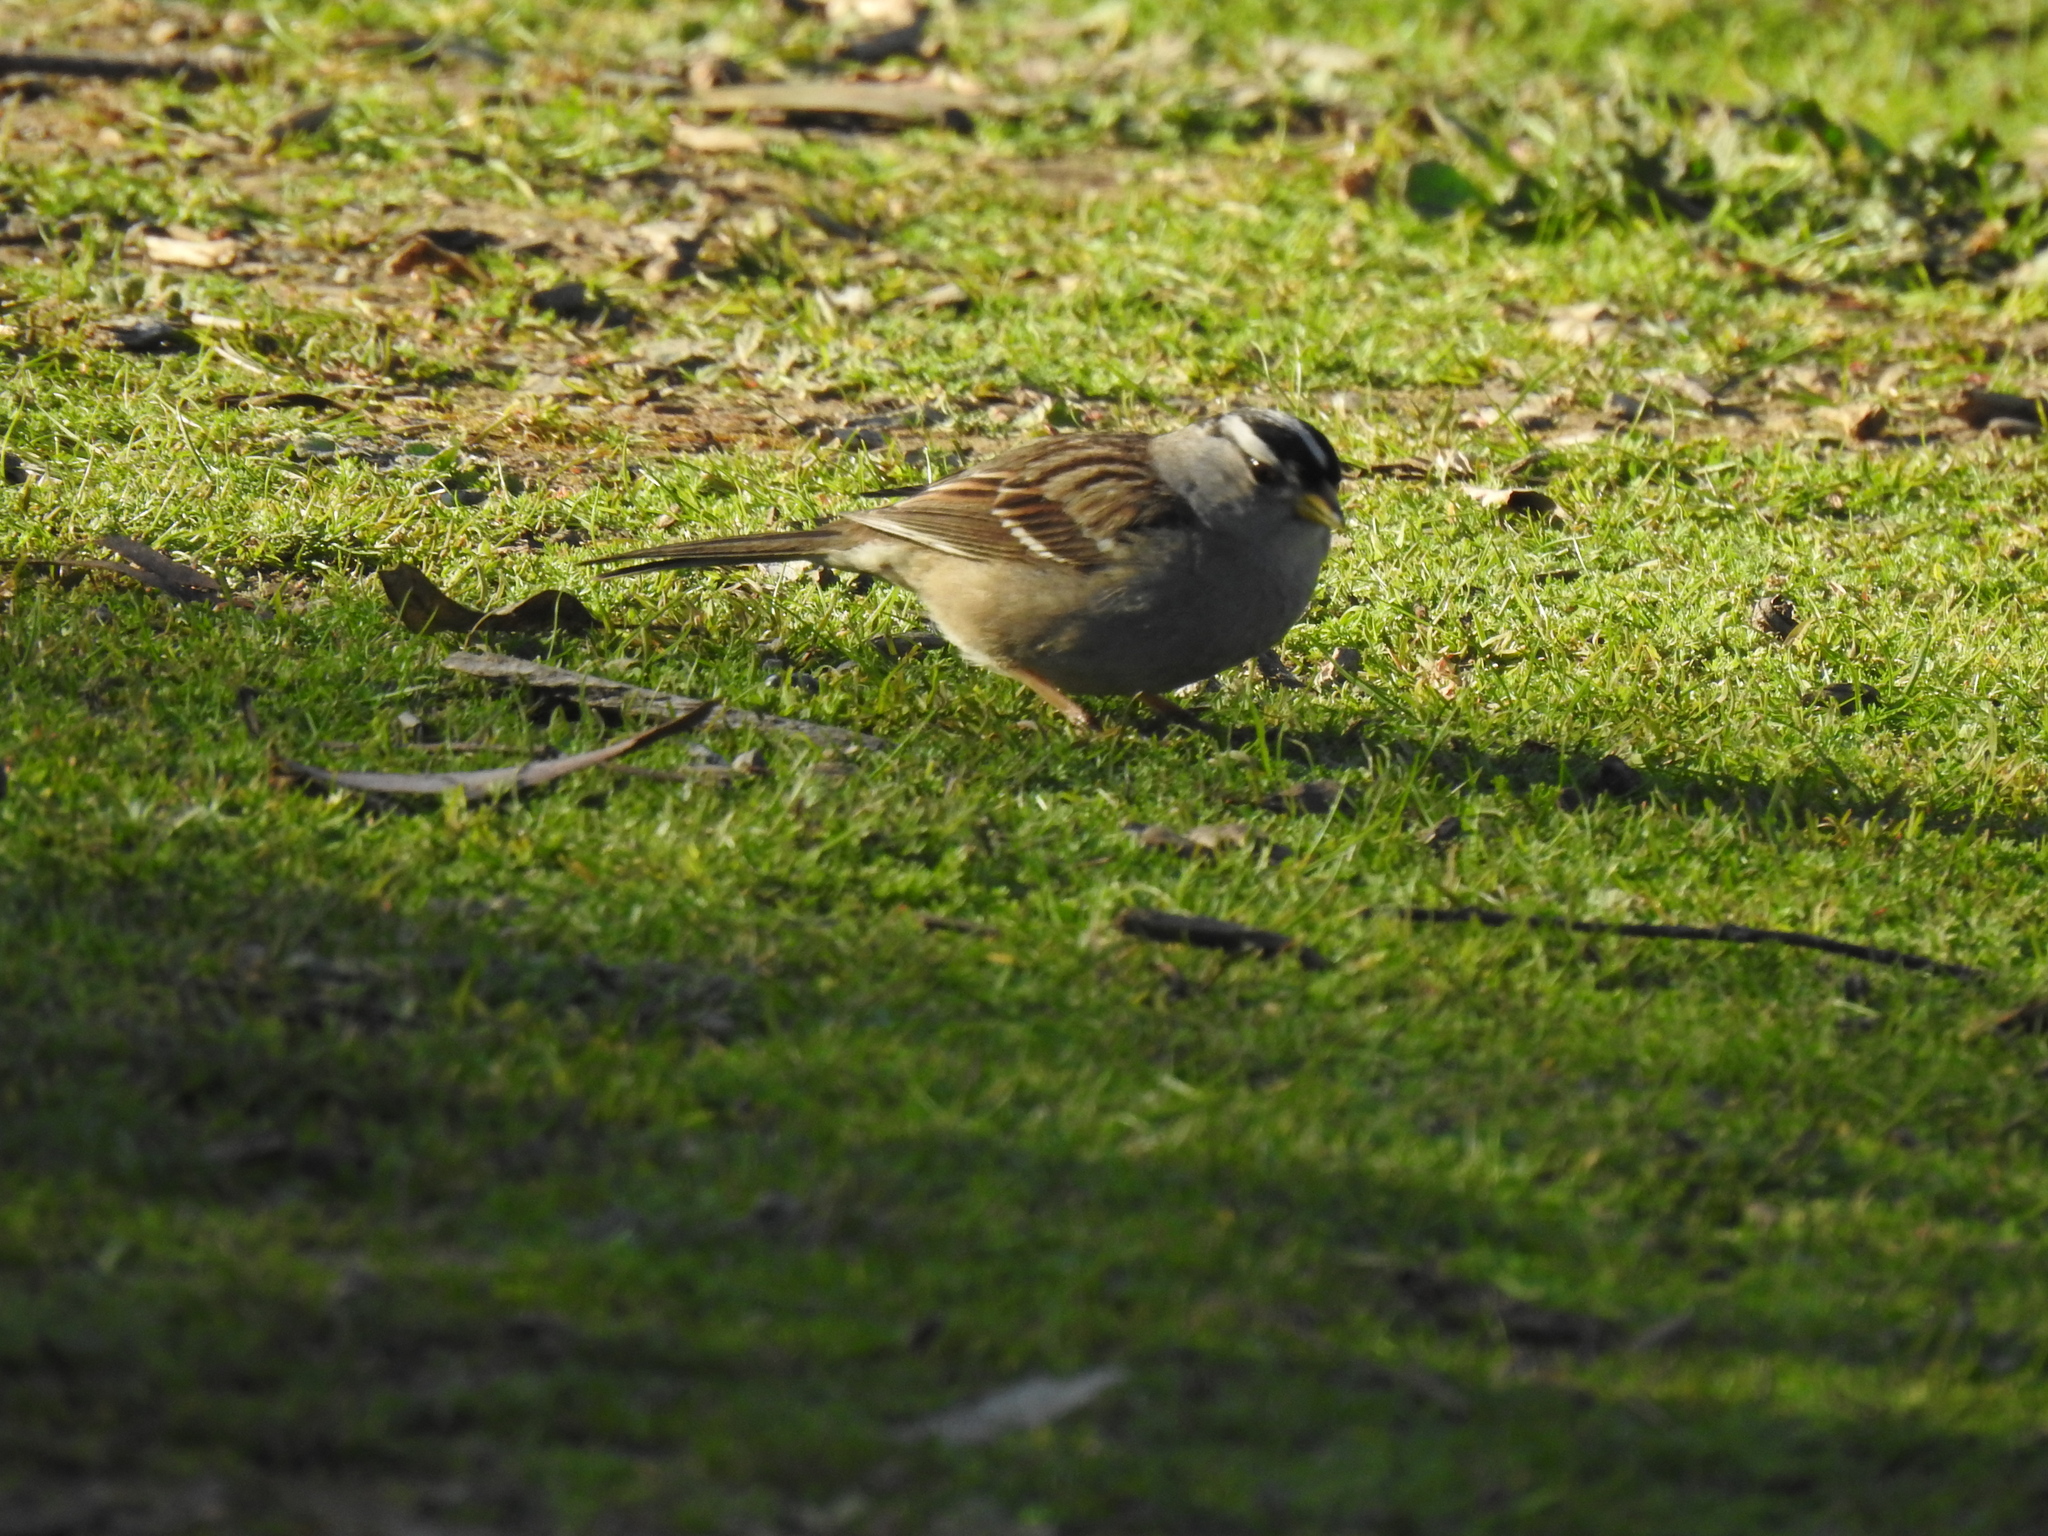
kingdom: Animalia
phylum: Chordata
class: Aves
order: Passeriformes
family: Passerellidae
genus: Zonotrichia
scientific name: Zonotrichia leucophrys
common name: White-crowned sparrow
